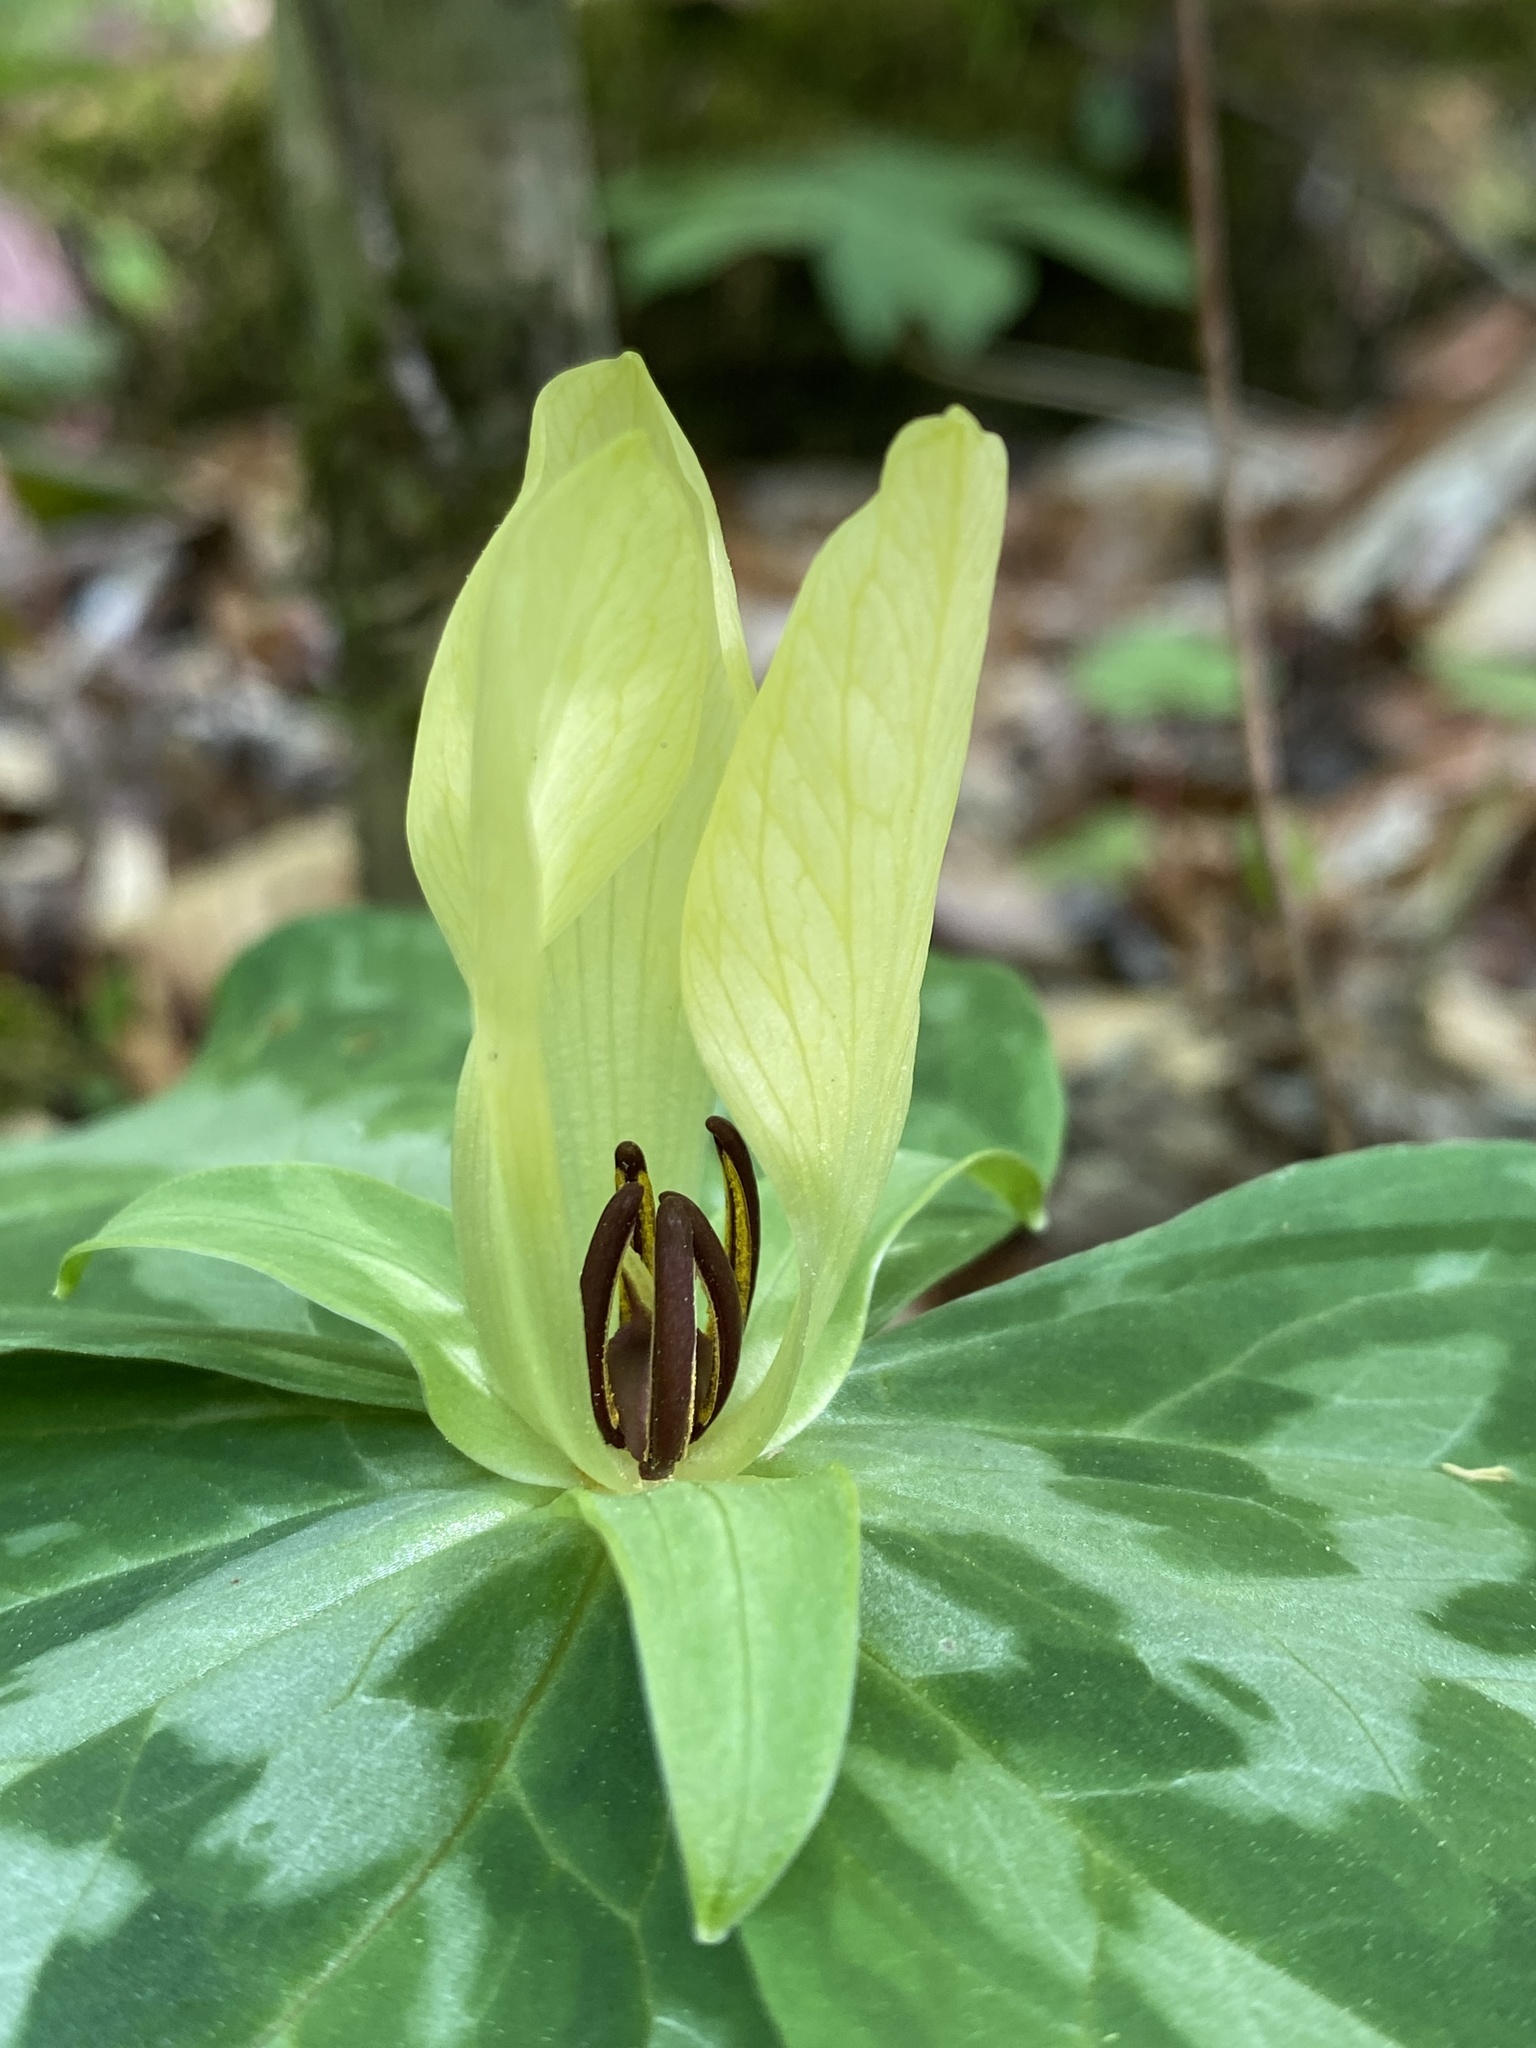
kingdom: Plantae
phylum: Tracheophyta
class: Liliopsida
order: Liliales
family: Melanthiaceae
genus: Trillium
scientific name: Trillium discolor
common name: Faded trillium
